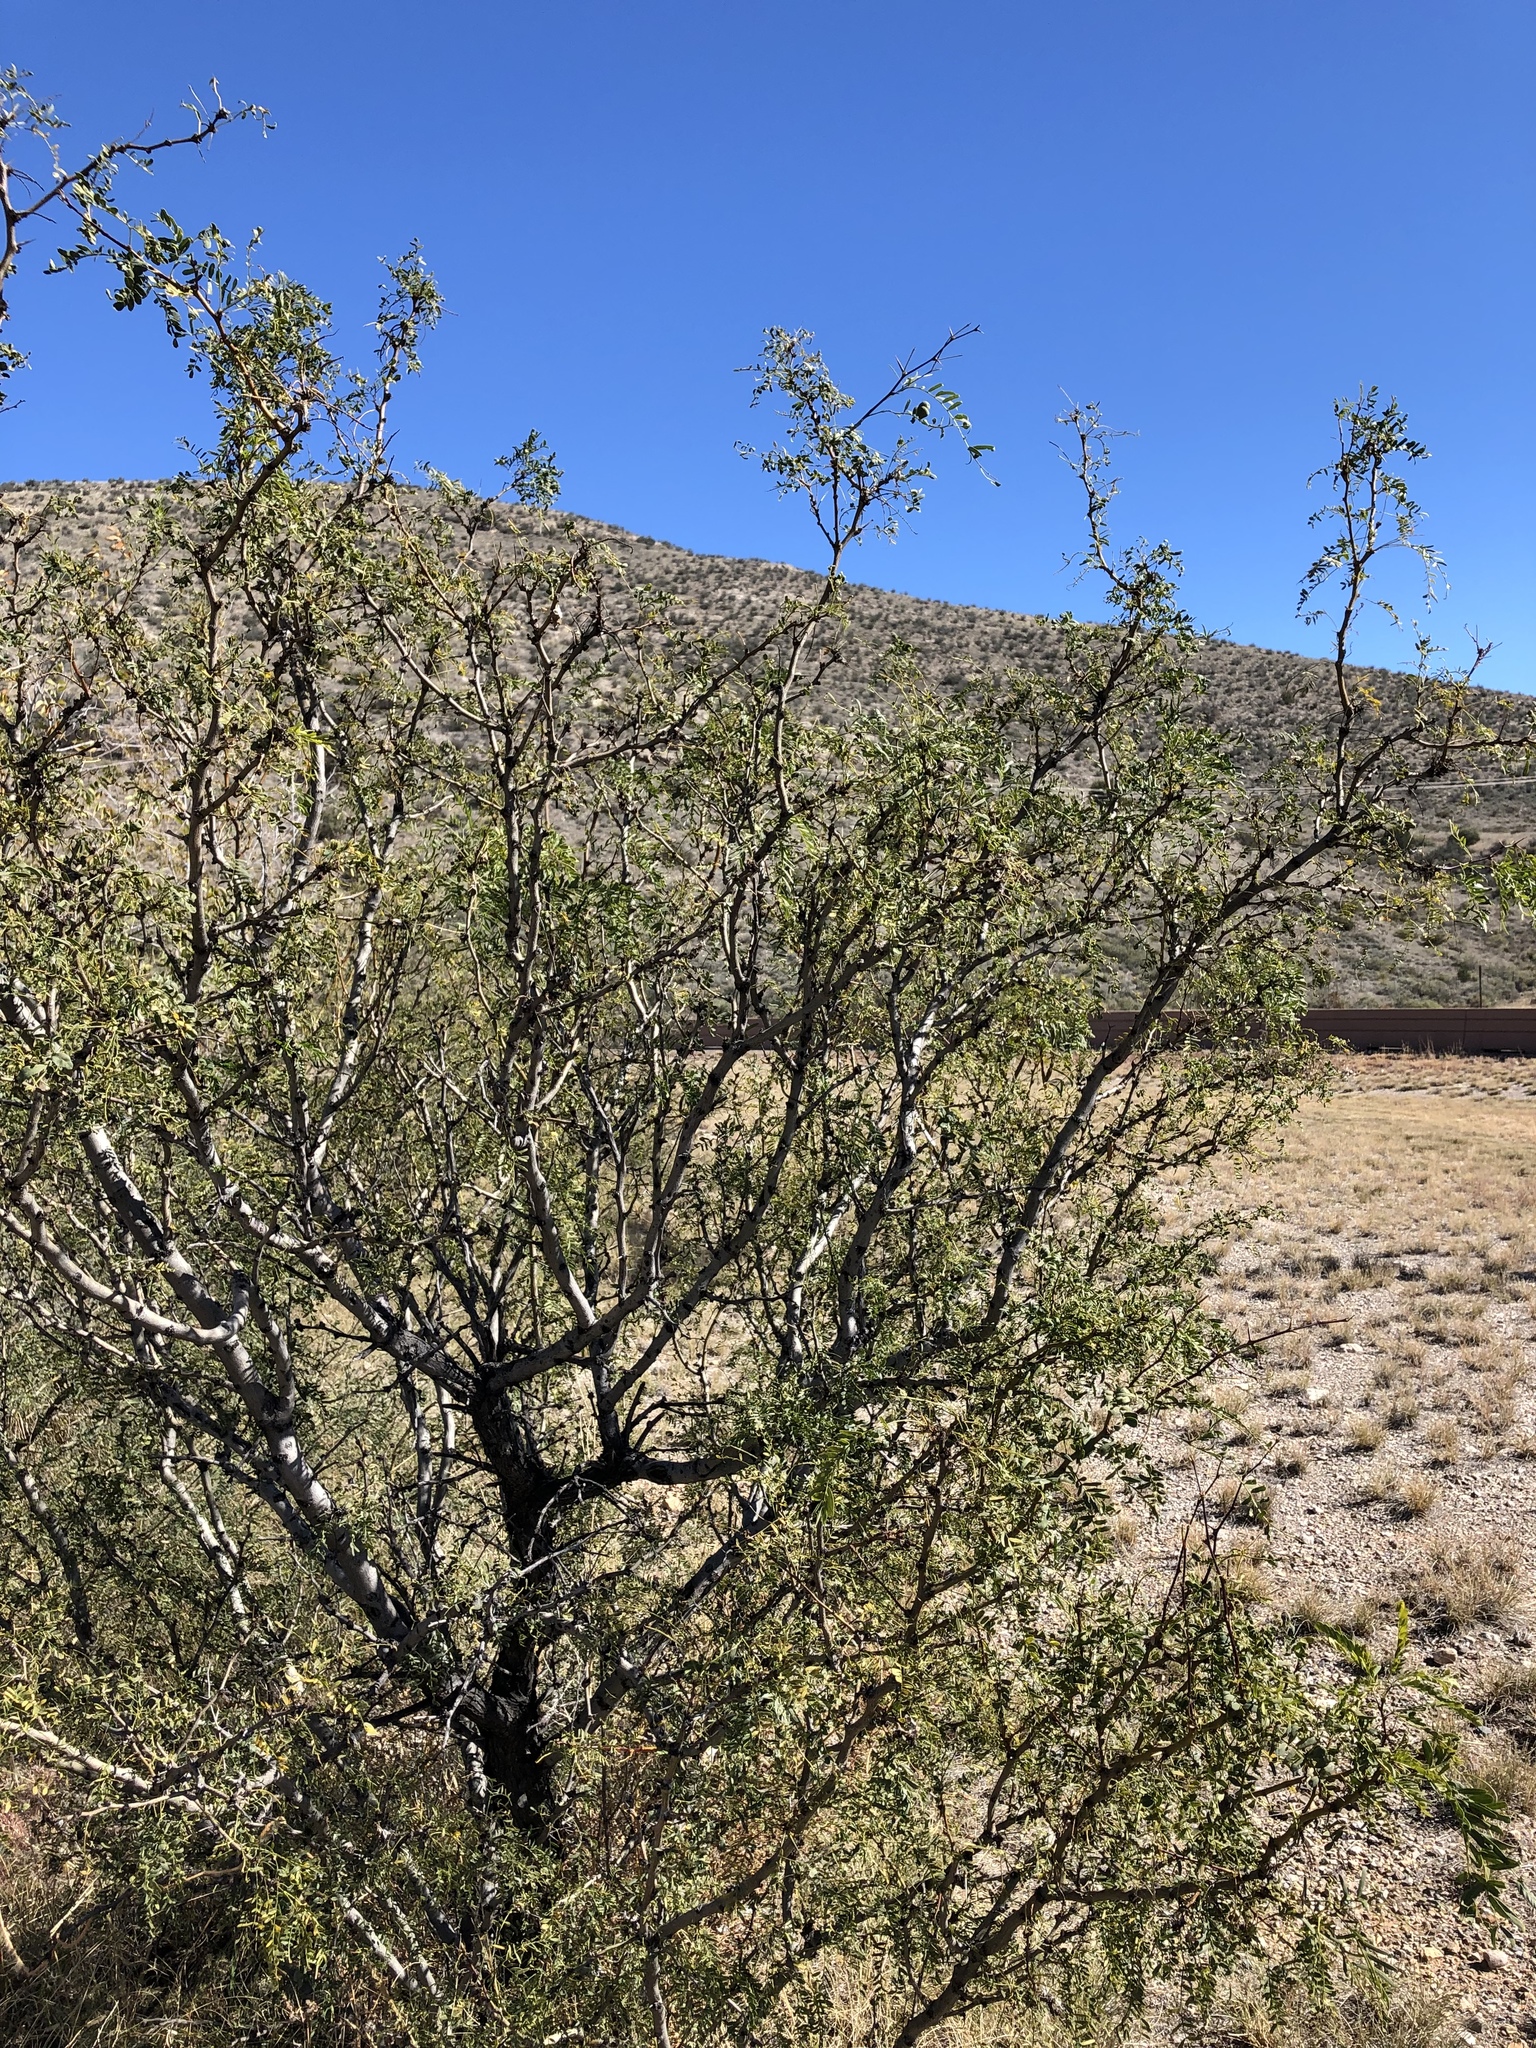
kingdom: Plantae
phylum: Tracheophyta
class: Magnoliopsida
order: Fabales
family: Fabaceae
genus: Prosopis
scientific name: Prosopis glandulosa
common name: Honey mesquite
